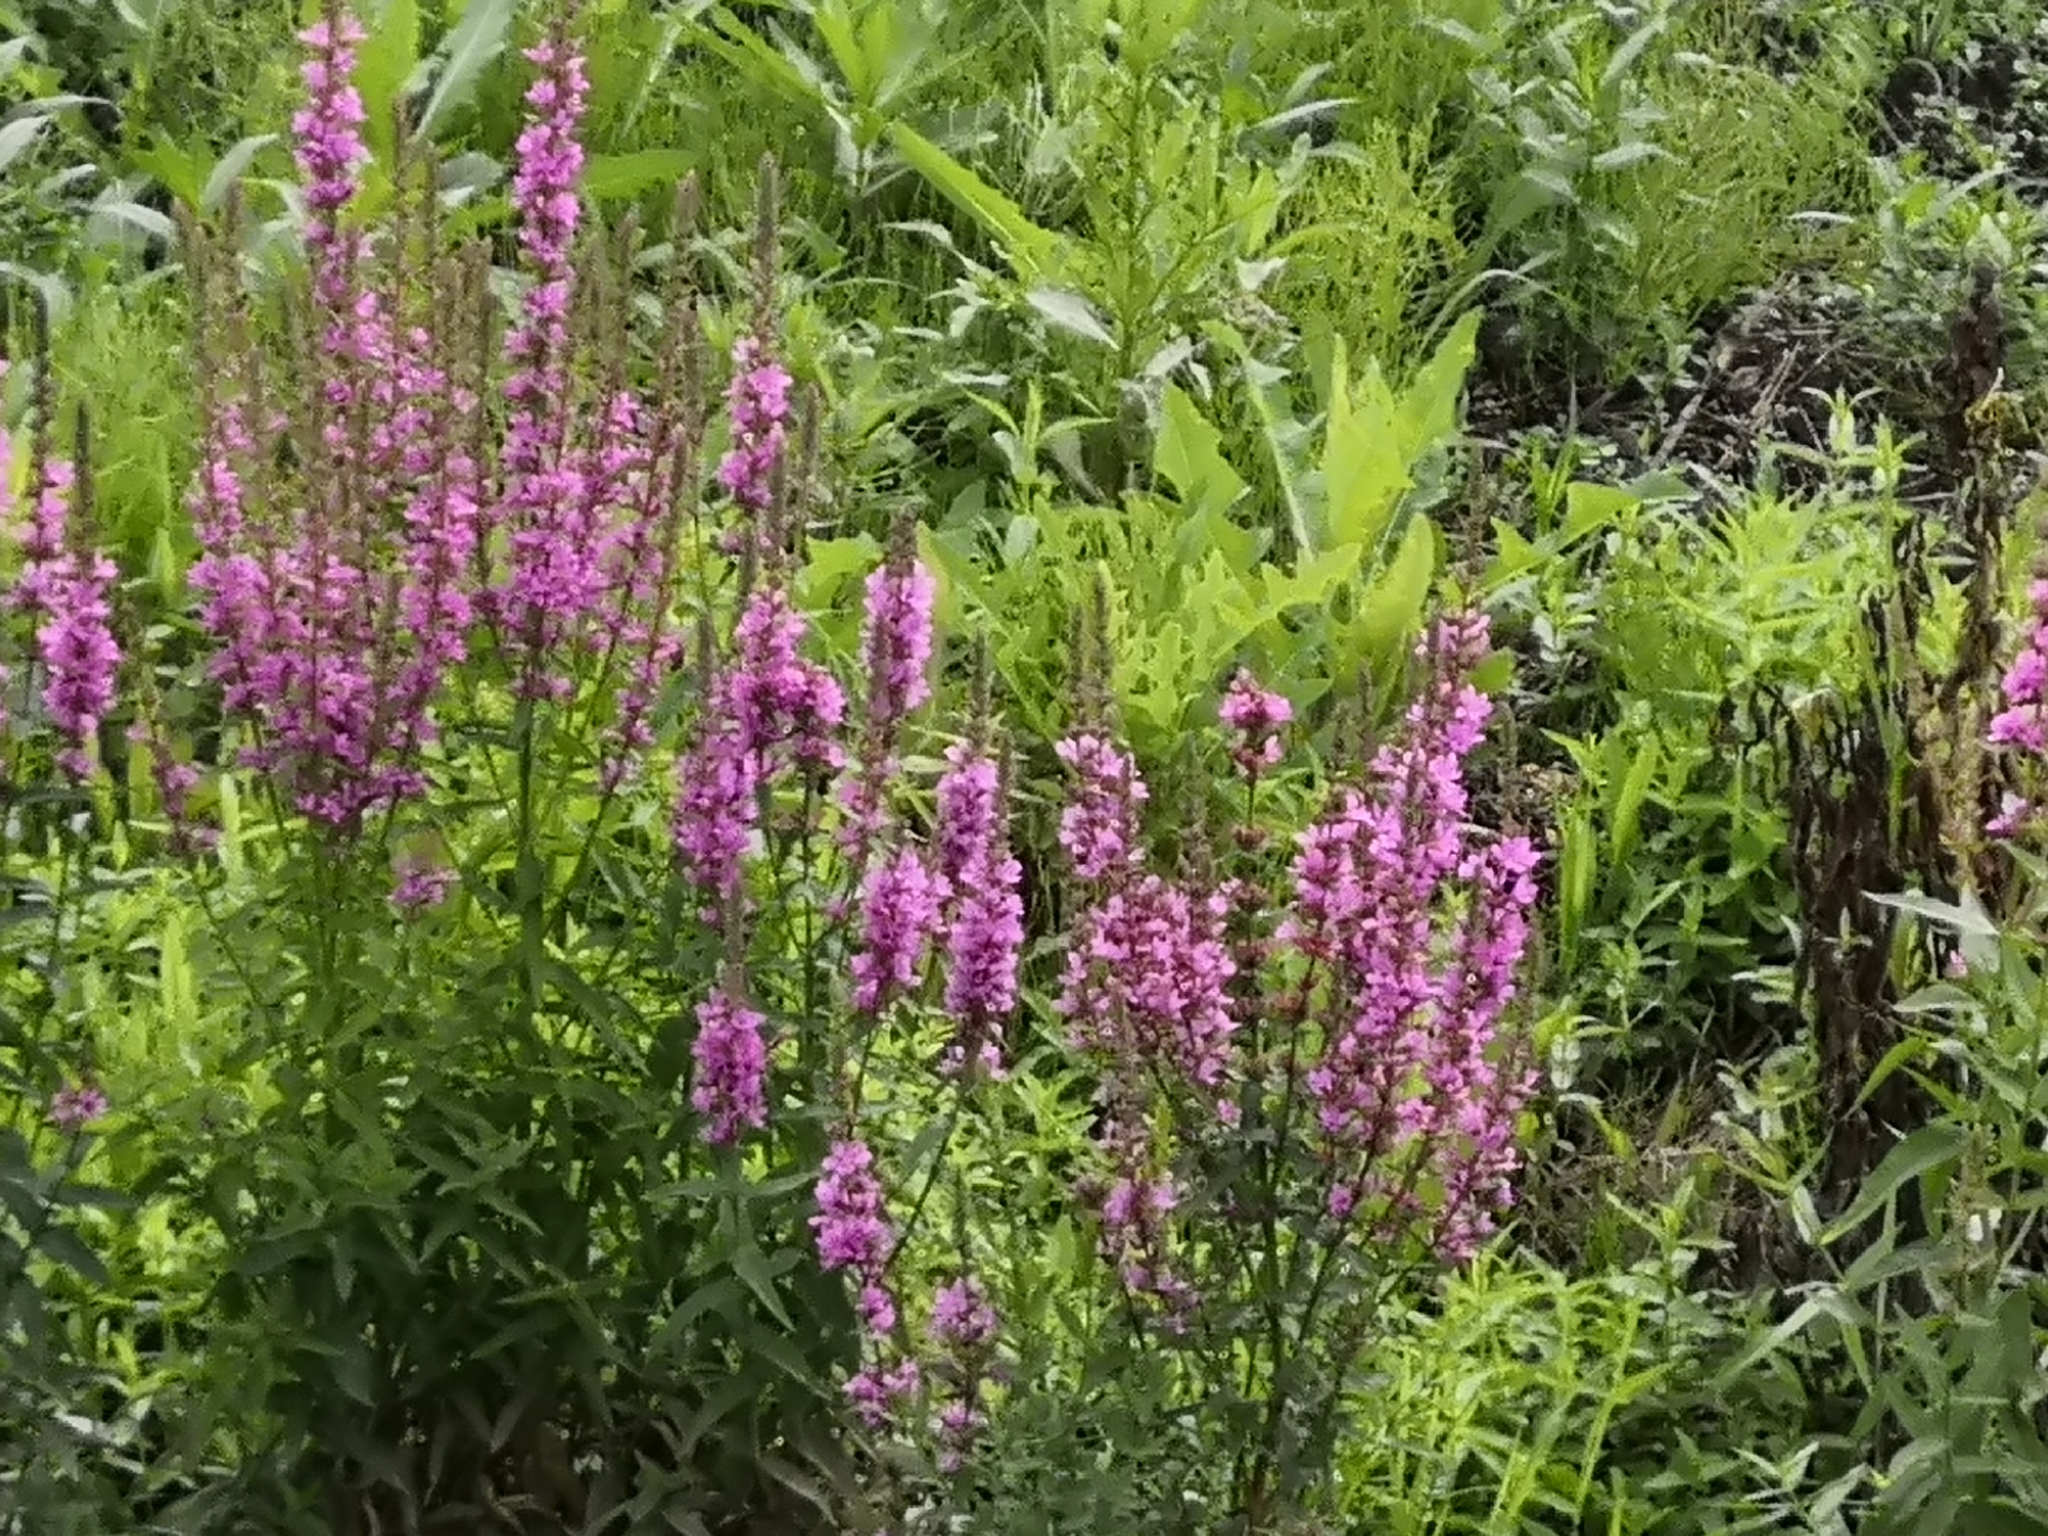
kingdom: Plantae
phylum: Tracheophyta
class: Magnoliopsida
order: Myrtales
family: Lythraceae
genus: Lythrum
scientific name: Lythrum salicaria
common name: Purple loosestrife
